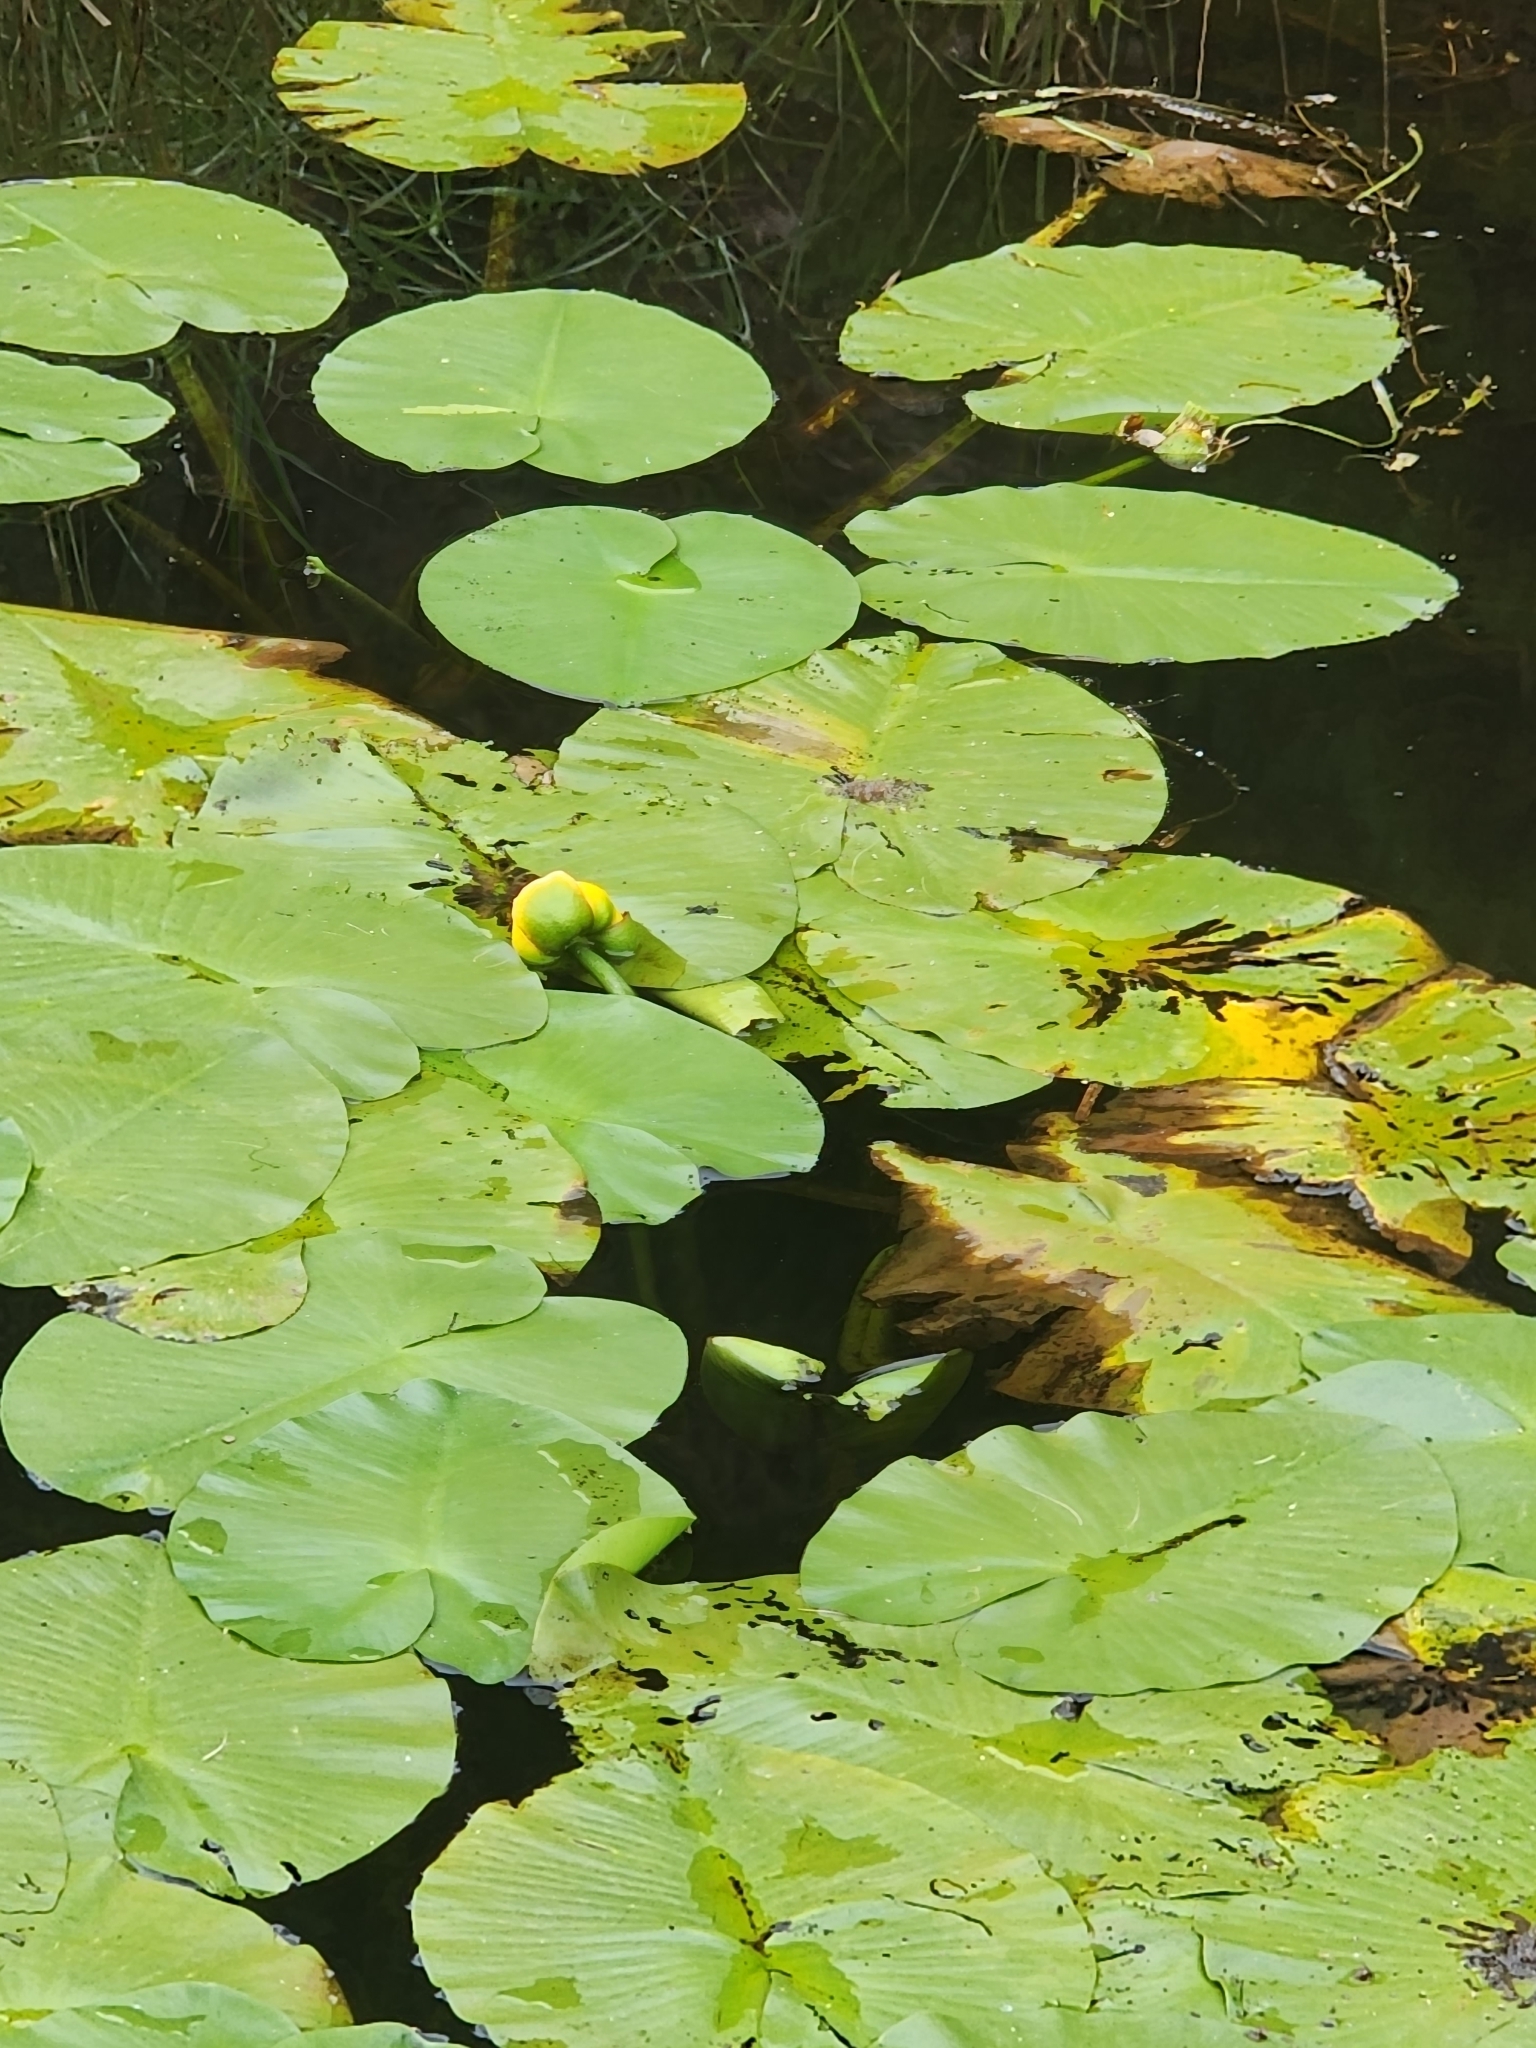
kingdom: Plantae
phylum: Tracheophyta
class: Magnoliopsida
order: Nymphaeales
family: Nymphaeaceae
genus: Nuphar
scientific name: Nuphar variegata
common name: Beaver-root
